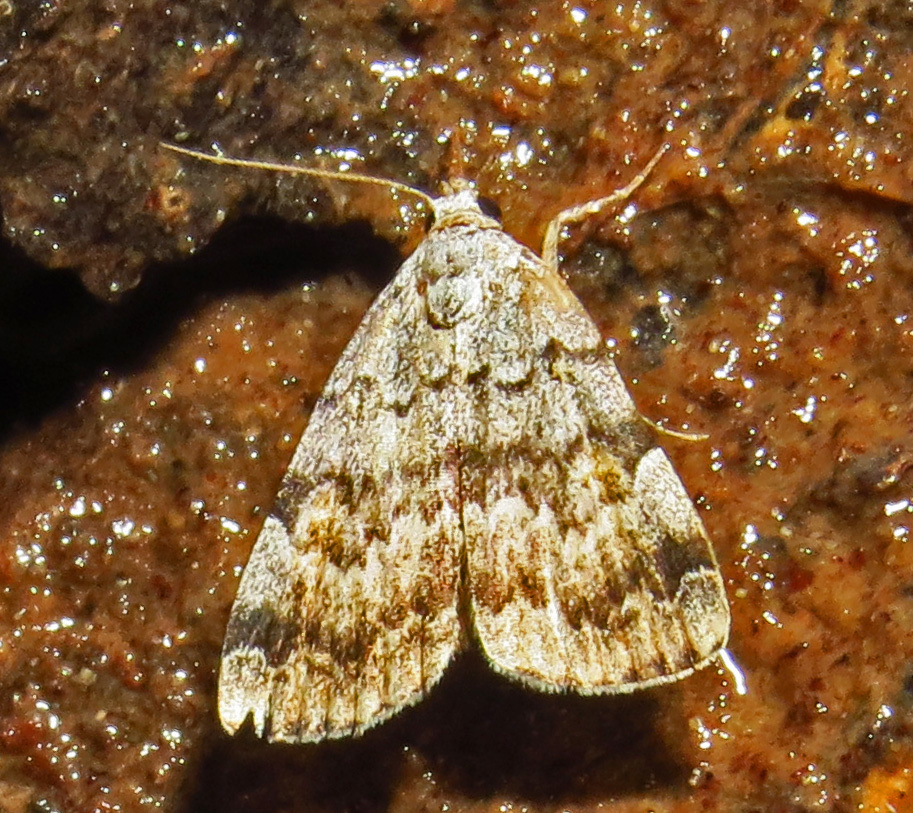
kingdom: Animalia
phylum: Arthropoda
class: Insecta
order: Lepidoptera
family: Erebidae
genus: Idia
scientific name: Idia americalis
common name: American idia moth
